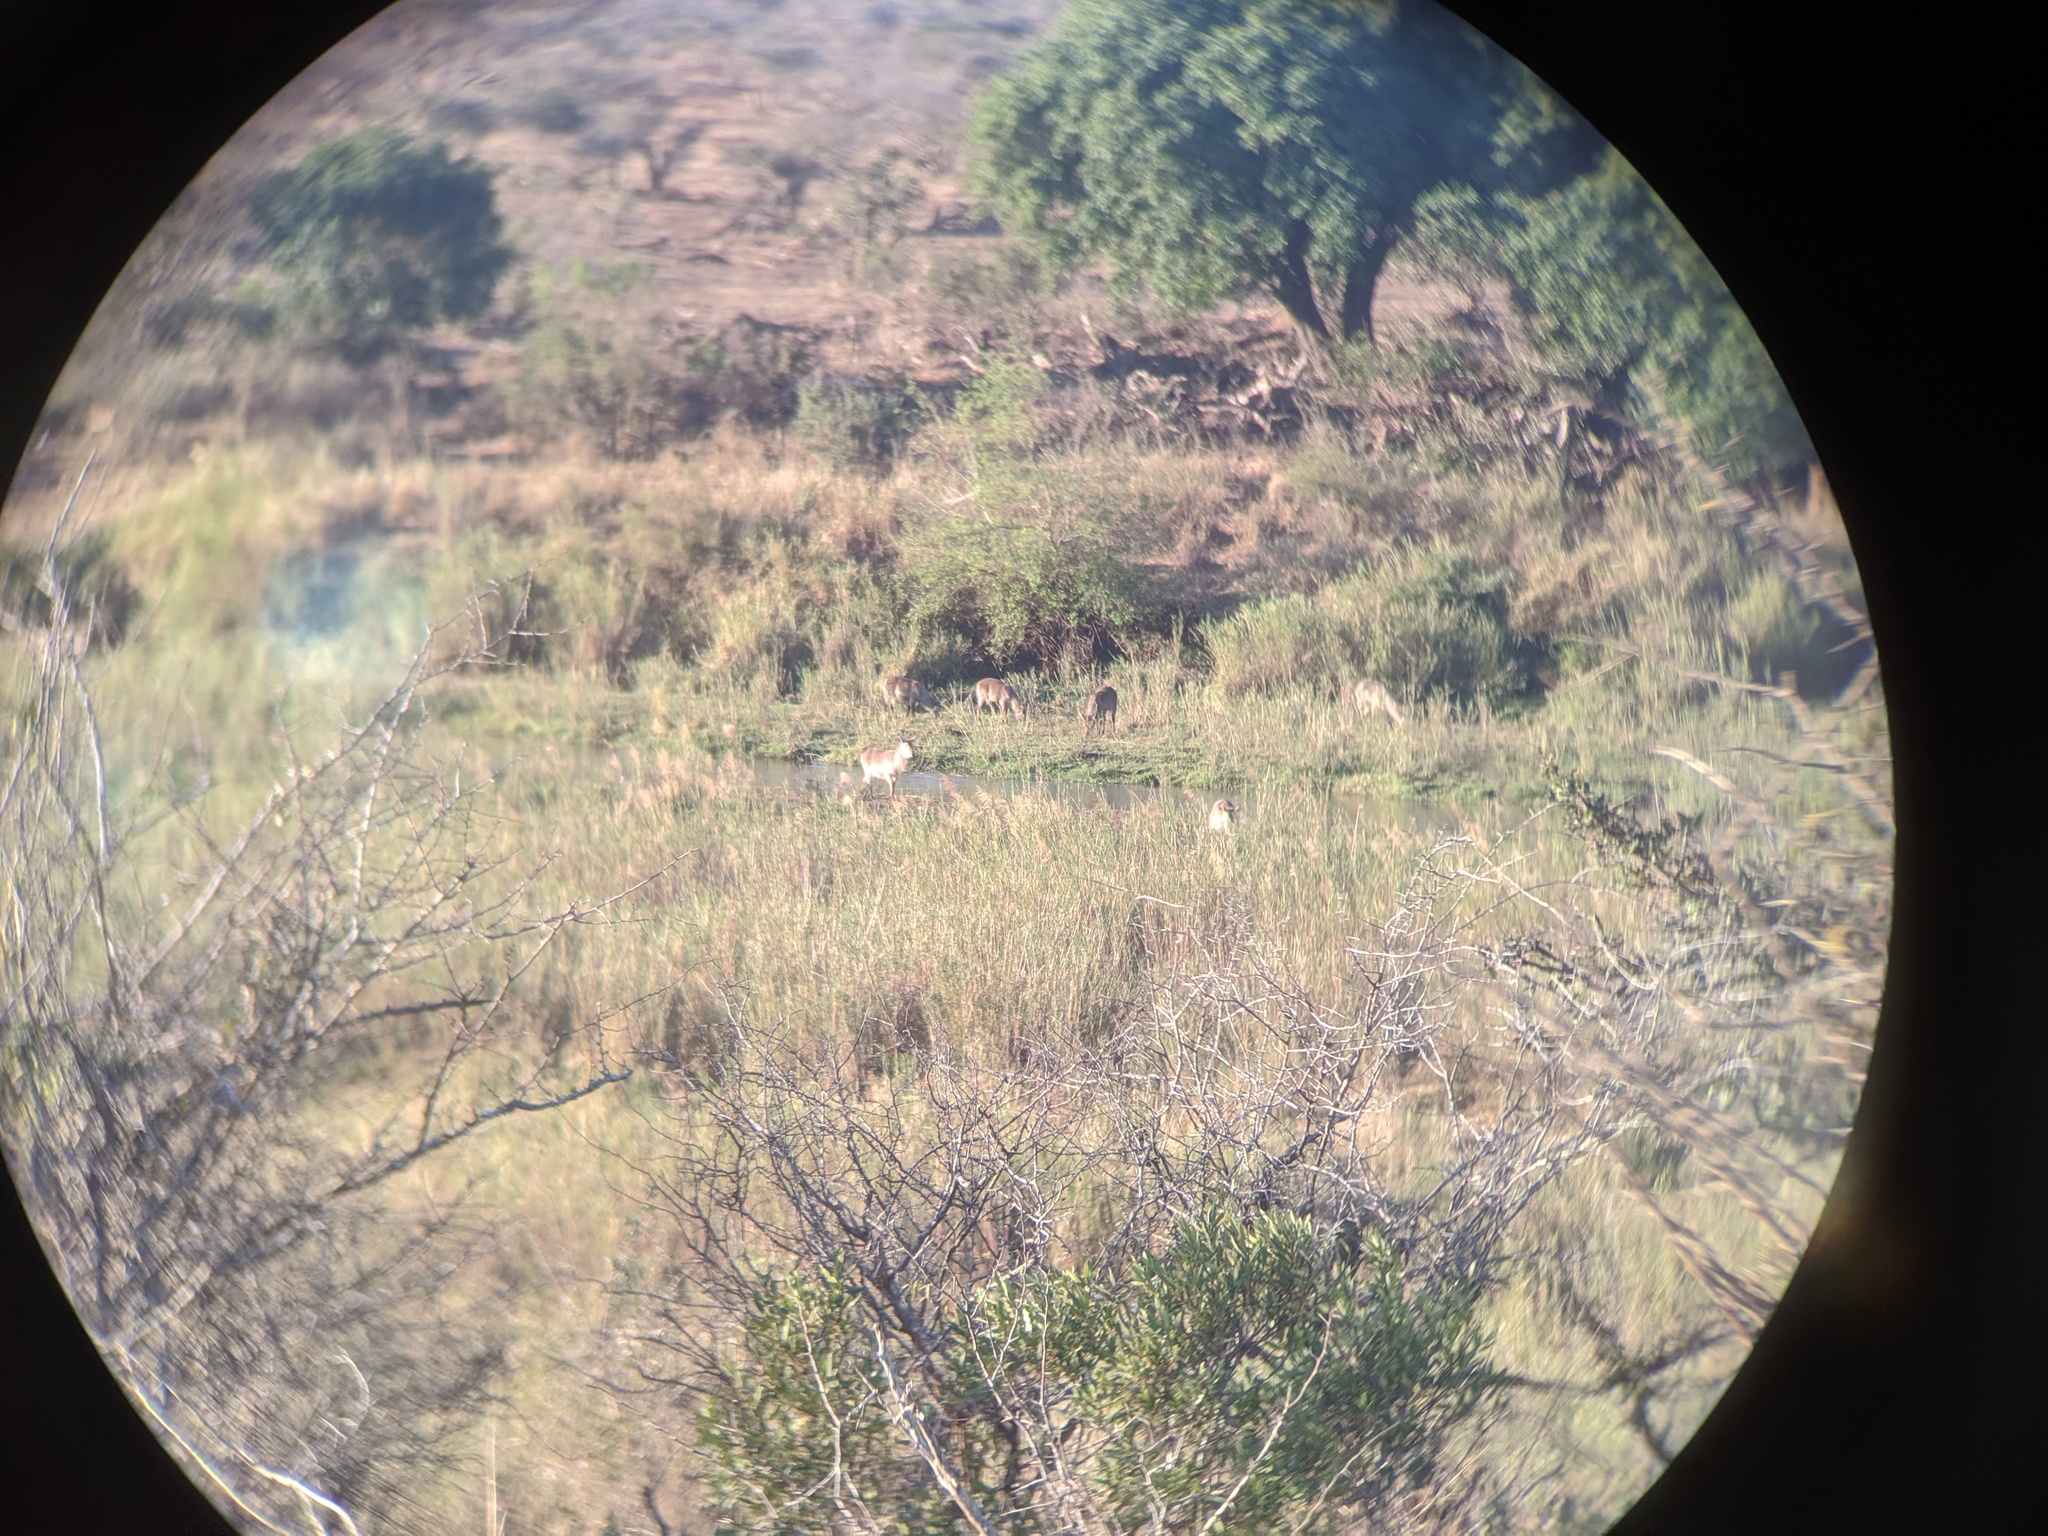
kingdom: Animalia
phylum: Chordata
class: Mammalia
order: Artiodactyla
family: Bovidae
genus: Kobus
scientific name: Kobus ellipsiprymnus
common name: Waterbuck
